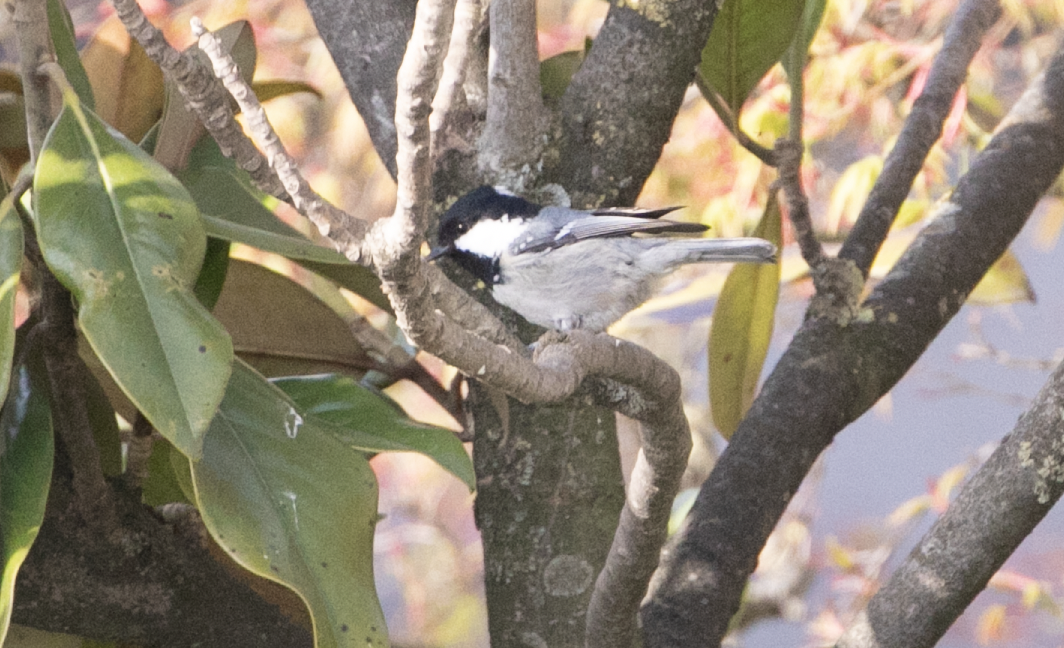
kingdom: Animalia
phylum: Chordata
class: Aves
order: Passeriformes
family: Paridae
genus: Periparus
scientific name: Periparus ater
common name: Coal tit
